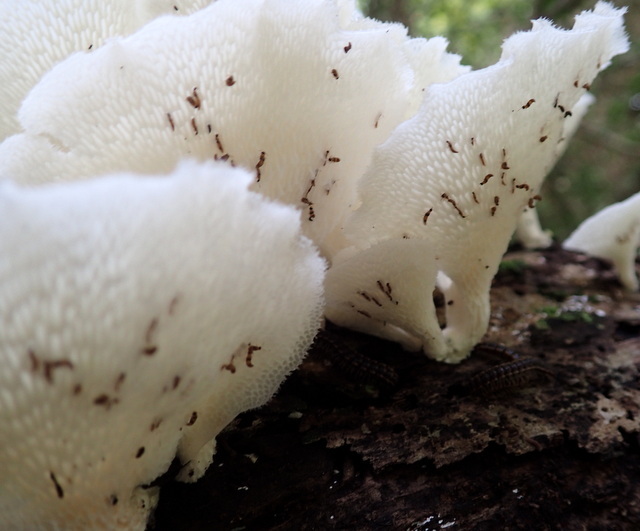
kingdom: Fungi
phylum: Basidiomycota
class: Agaricomycetes
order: Polyporales
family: Polyporaceae
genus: Favolus
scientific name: Favolus tenuiculus
